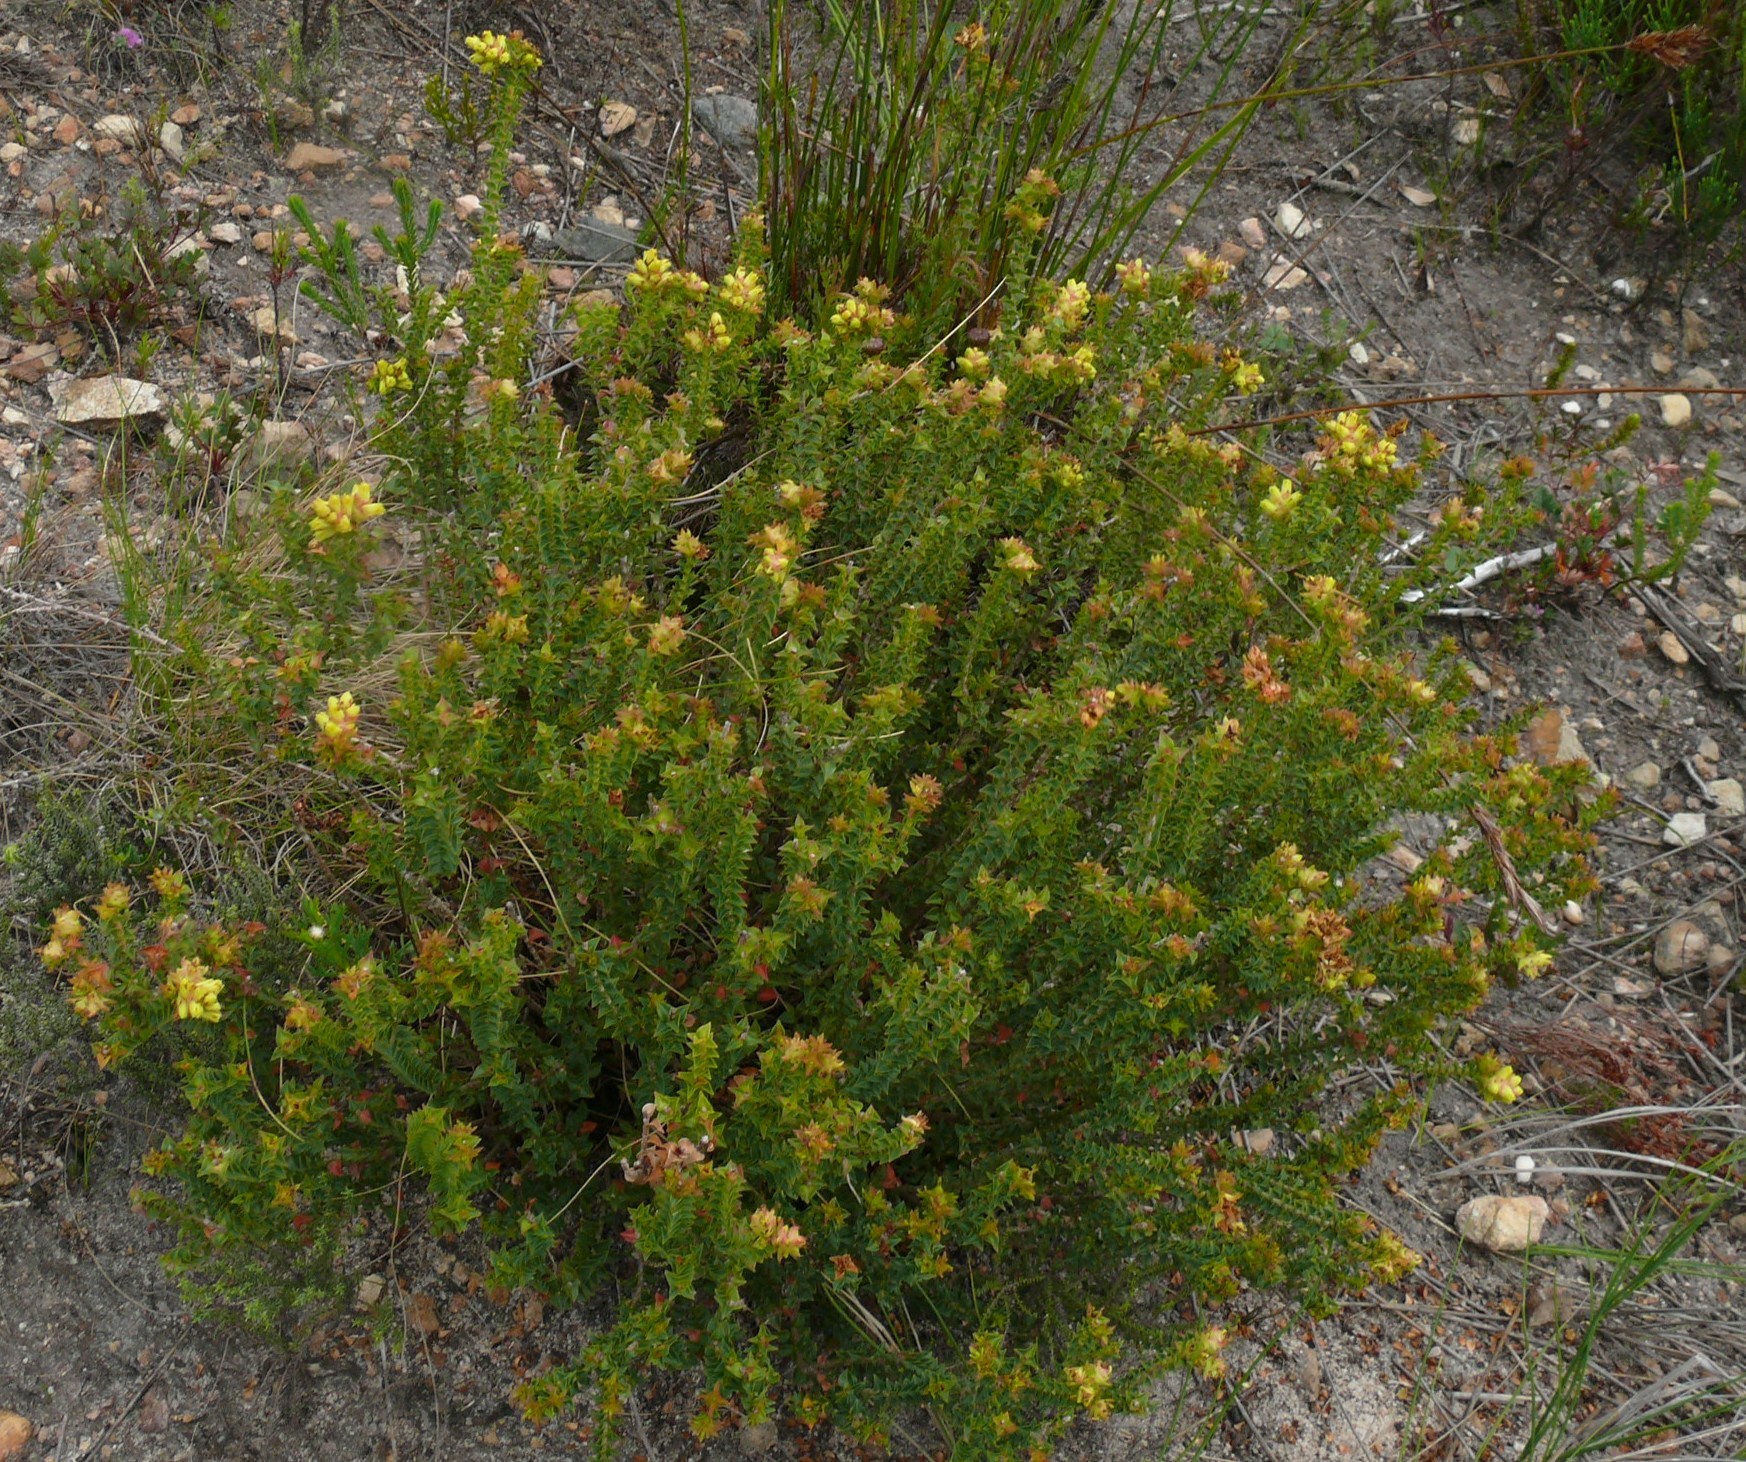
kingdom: Plantae
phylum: Tracheophyta
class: Magnoliopsida
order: Myrtales
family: Penaeaceae
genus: Penaea
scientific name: Penaea mucronata
